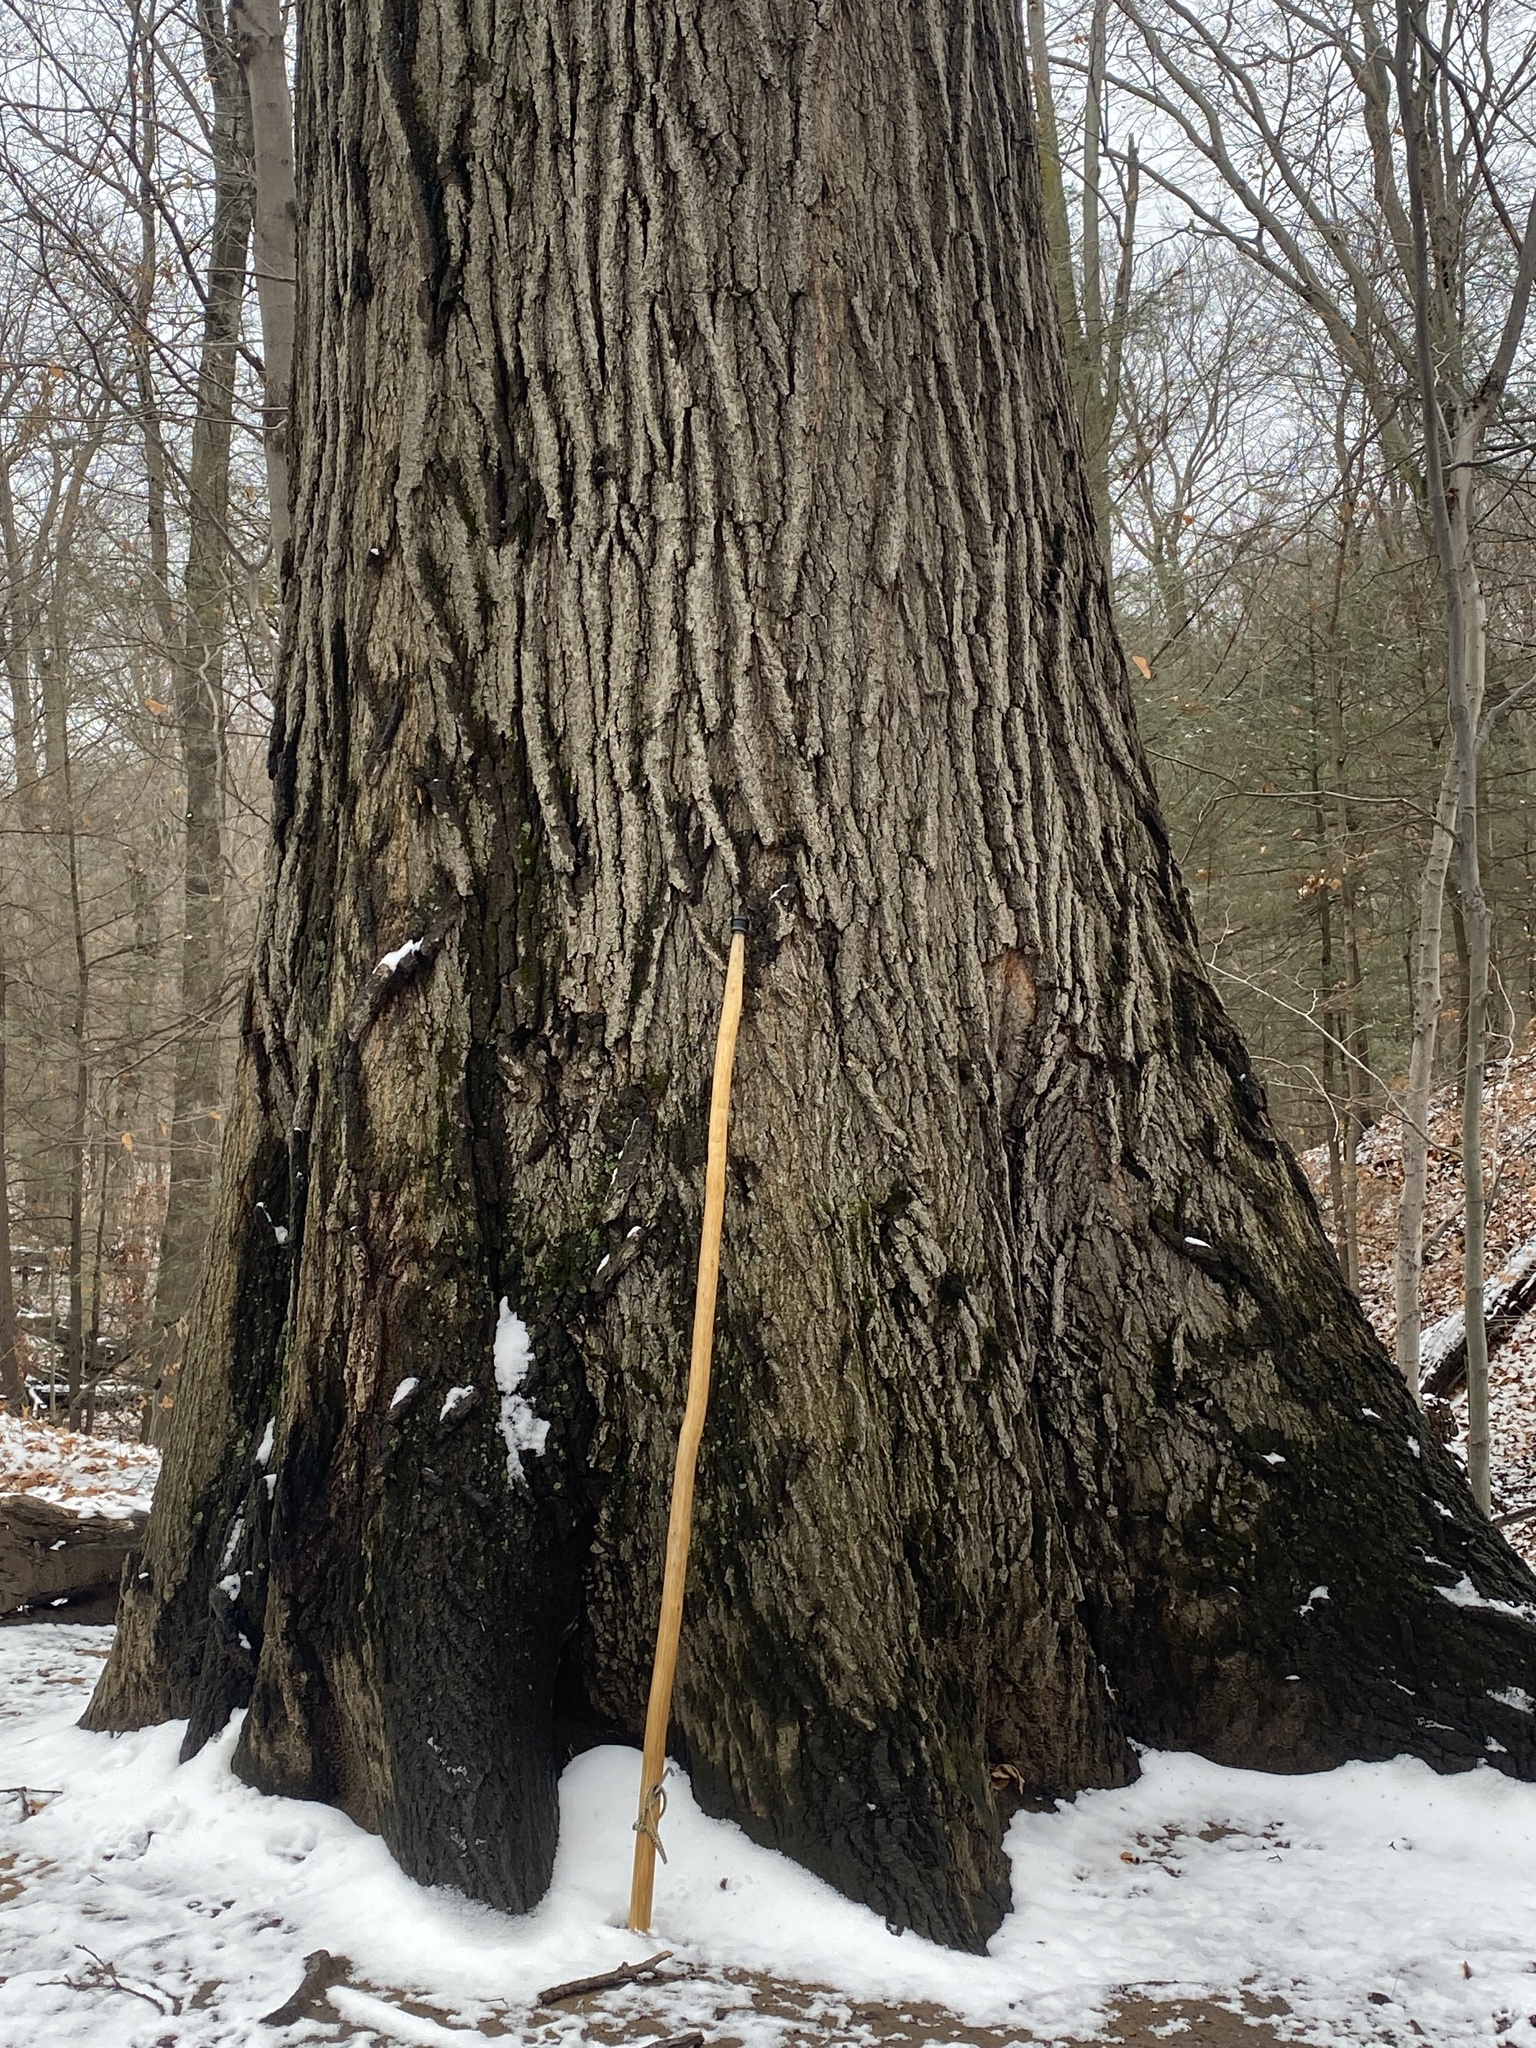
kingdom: Plantae
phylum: Tracheophyta
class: Magnoliopsida
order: Fagales
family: Fagaceae
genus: Quercus
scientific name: Quercus rubra
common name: Red oak
